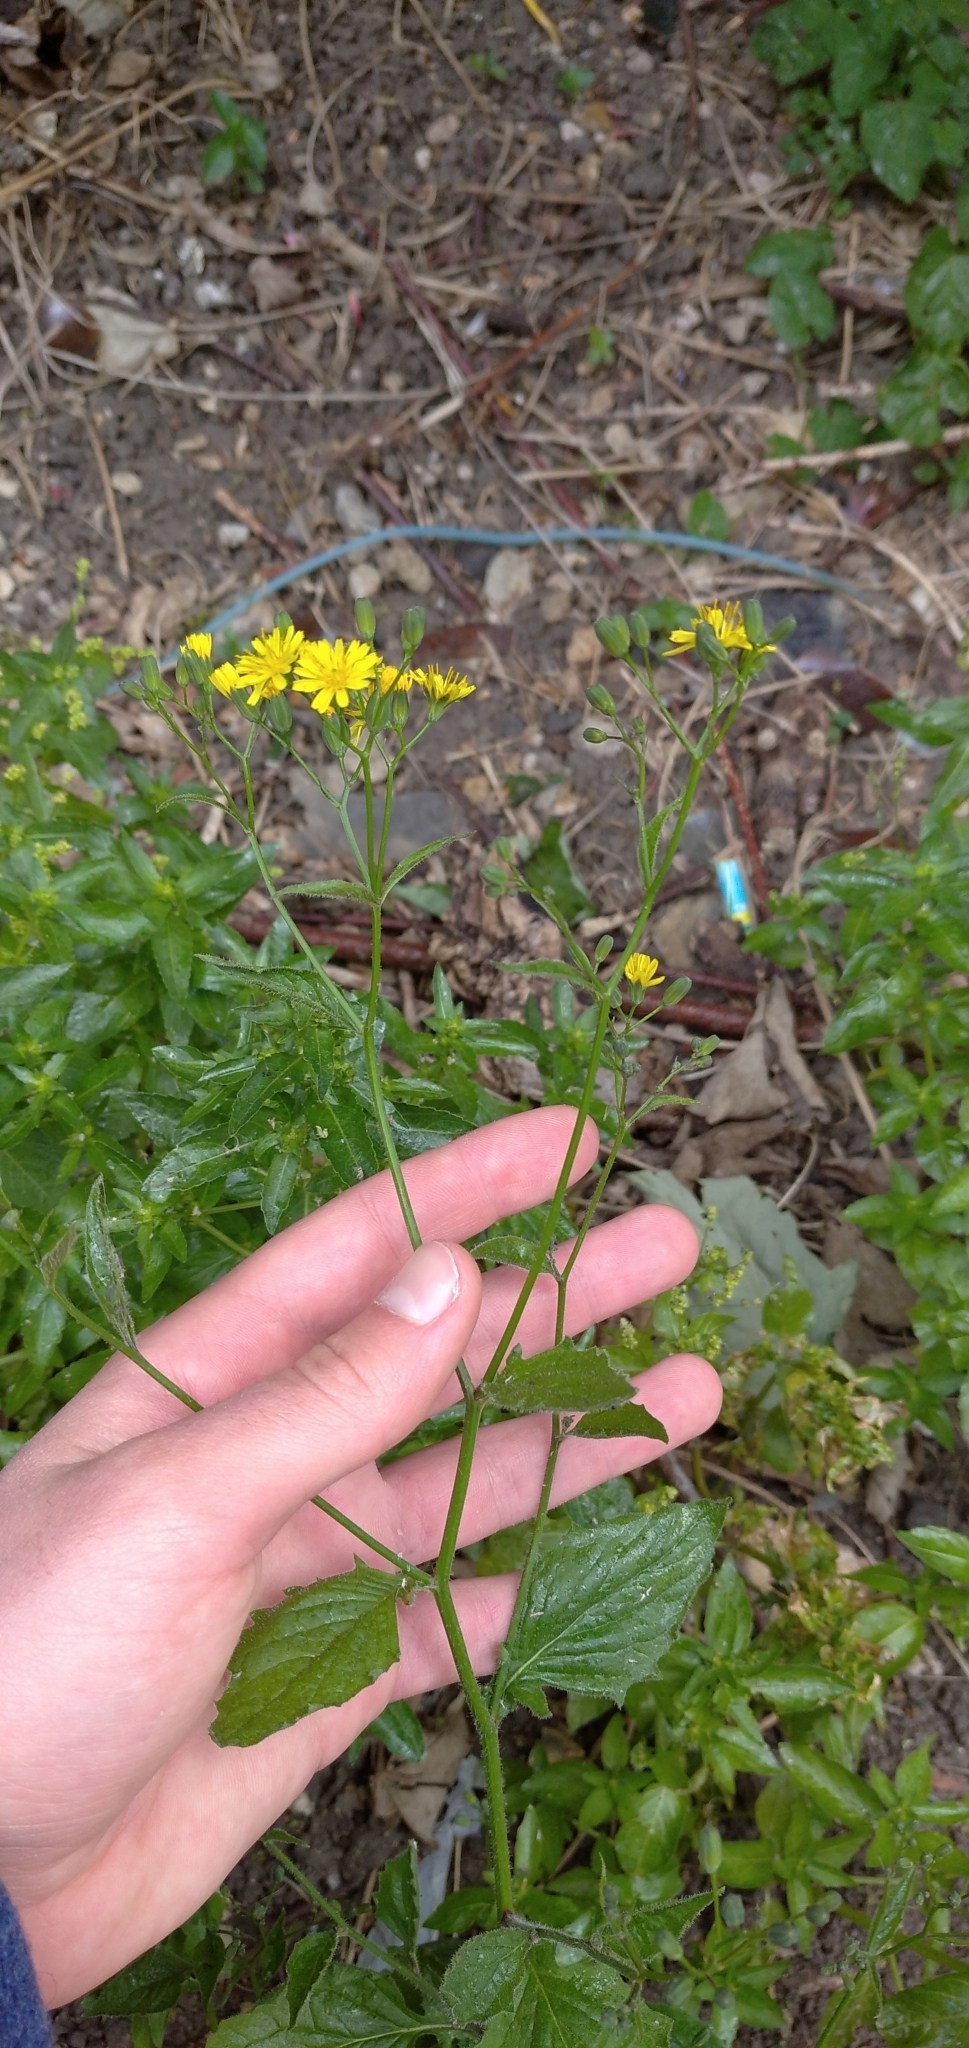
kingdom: Plantae
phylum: Tracheophyta
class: Magnoliopsida
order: Asterales
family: Asteraceae
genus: Lapsana
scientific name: Lapsana communis
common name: Nipplewort
